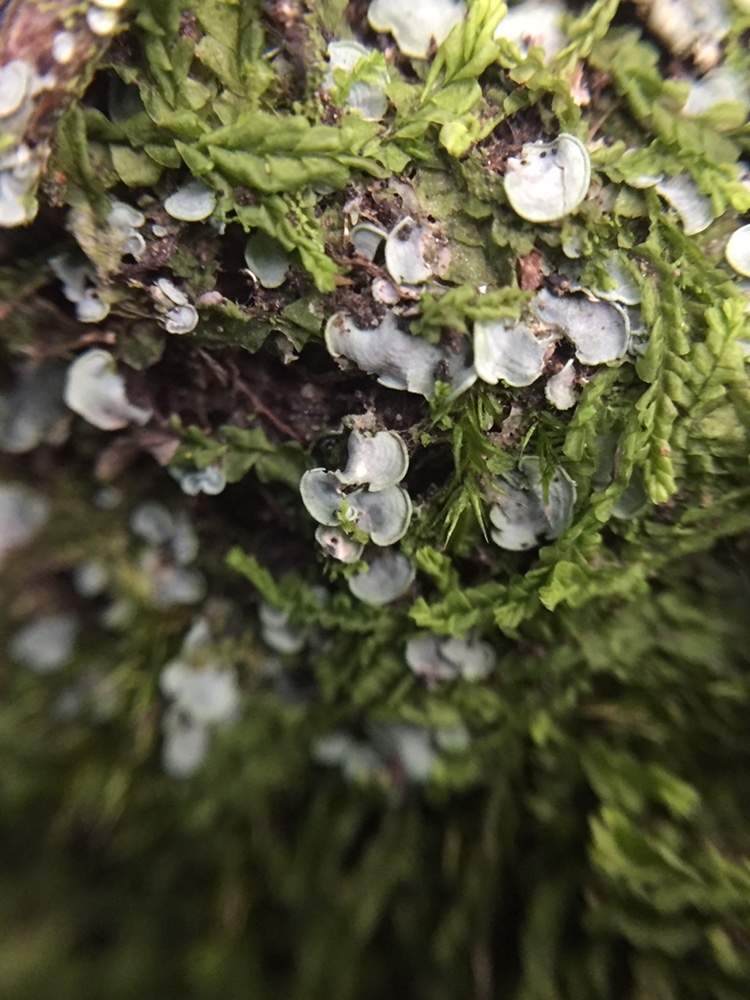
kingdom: Fungi
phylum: Ascomycota
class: Eurotiomycetes
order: Verrucariales
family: Verrucariaceae
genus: Normandina
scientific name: Normandina pulchella
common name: Elf ears lichen
